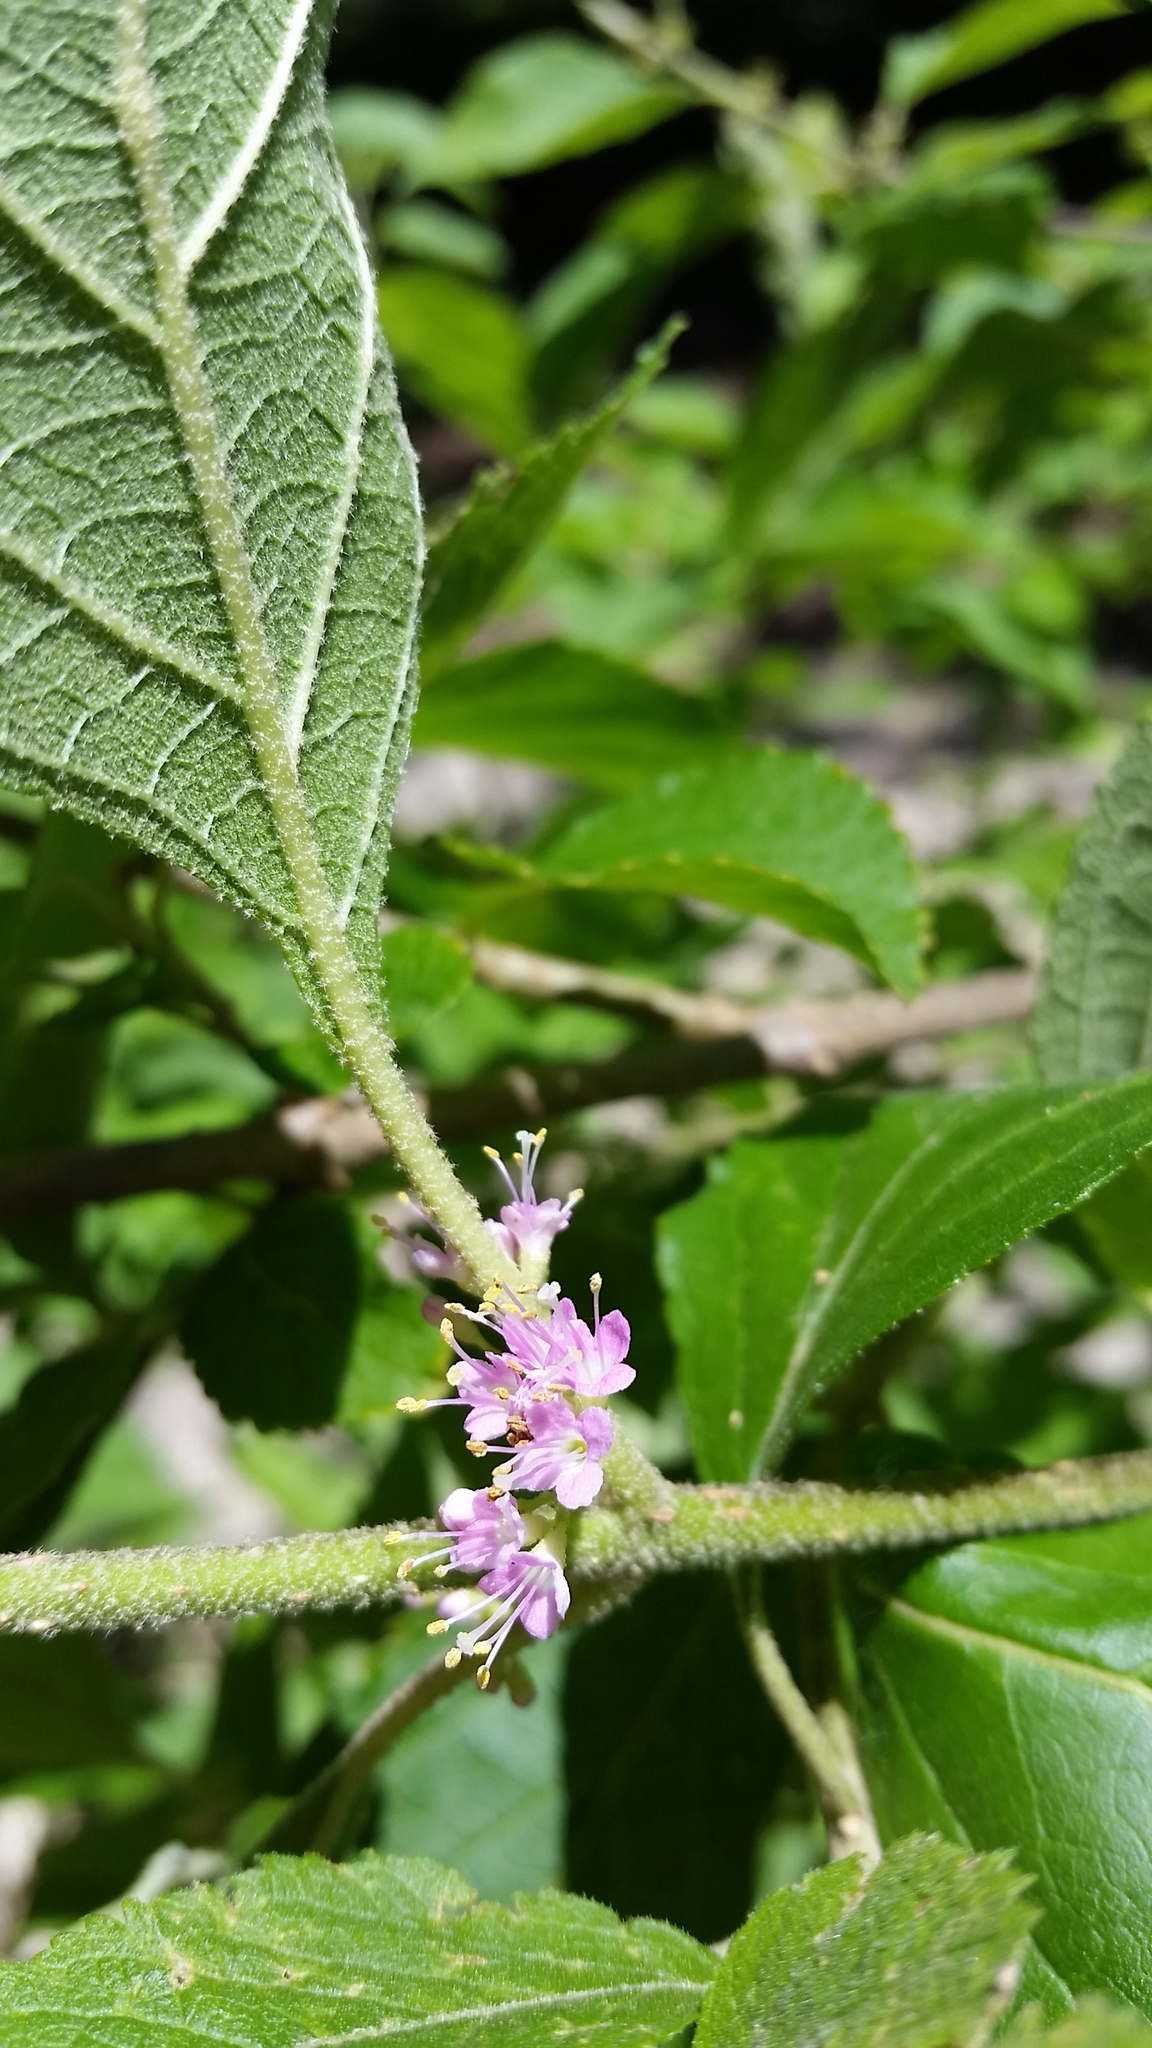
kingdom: Plantae
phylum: Tracheophyta
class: Magnoliopsida
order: Lamiales
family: Lamiaceae
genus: Callicarpa
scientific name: Callicarpa americana
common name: American beautyberry
